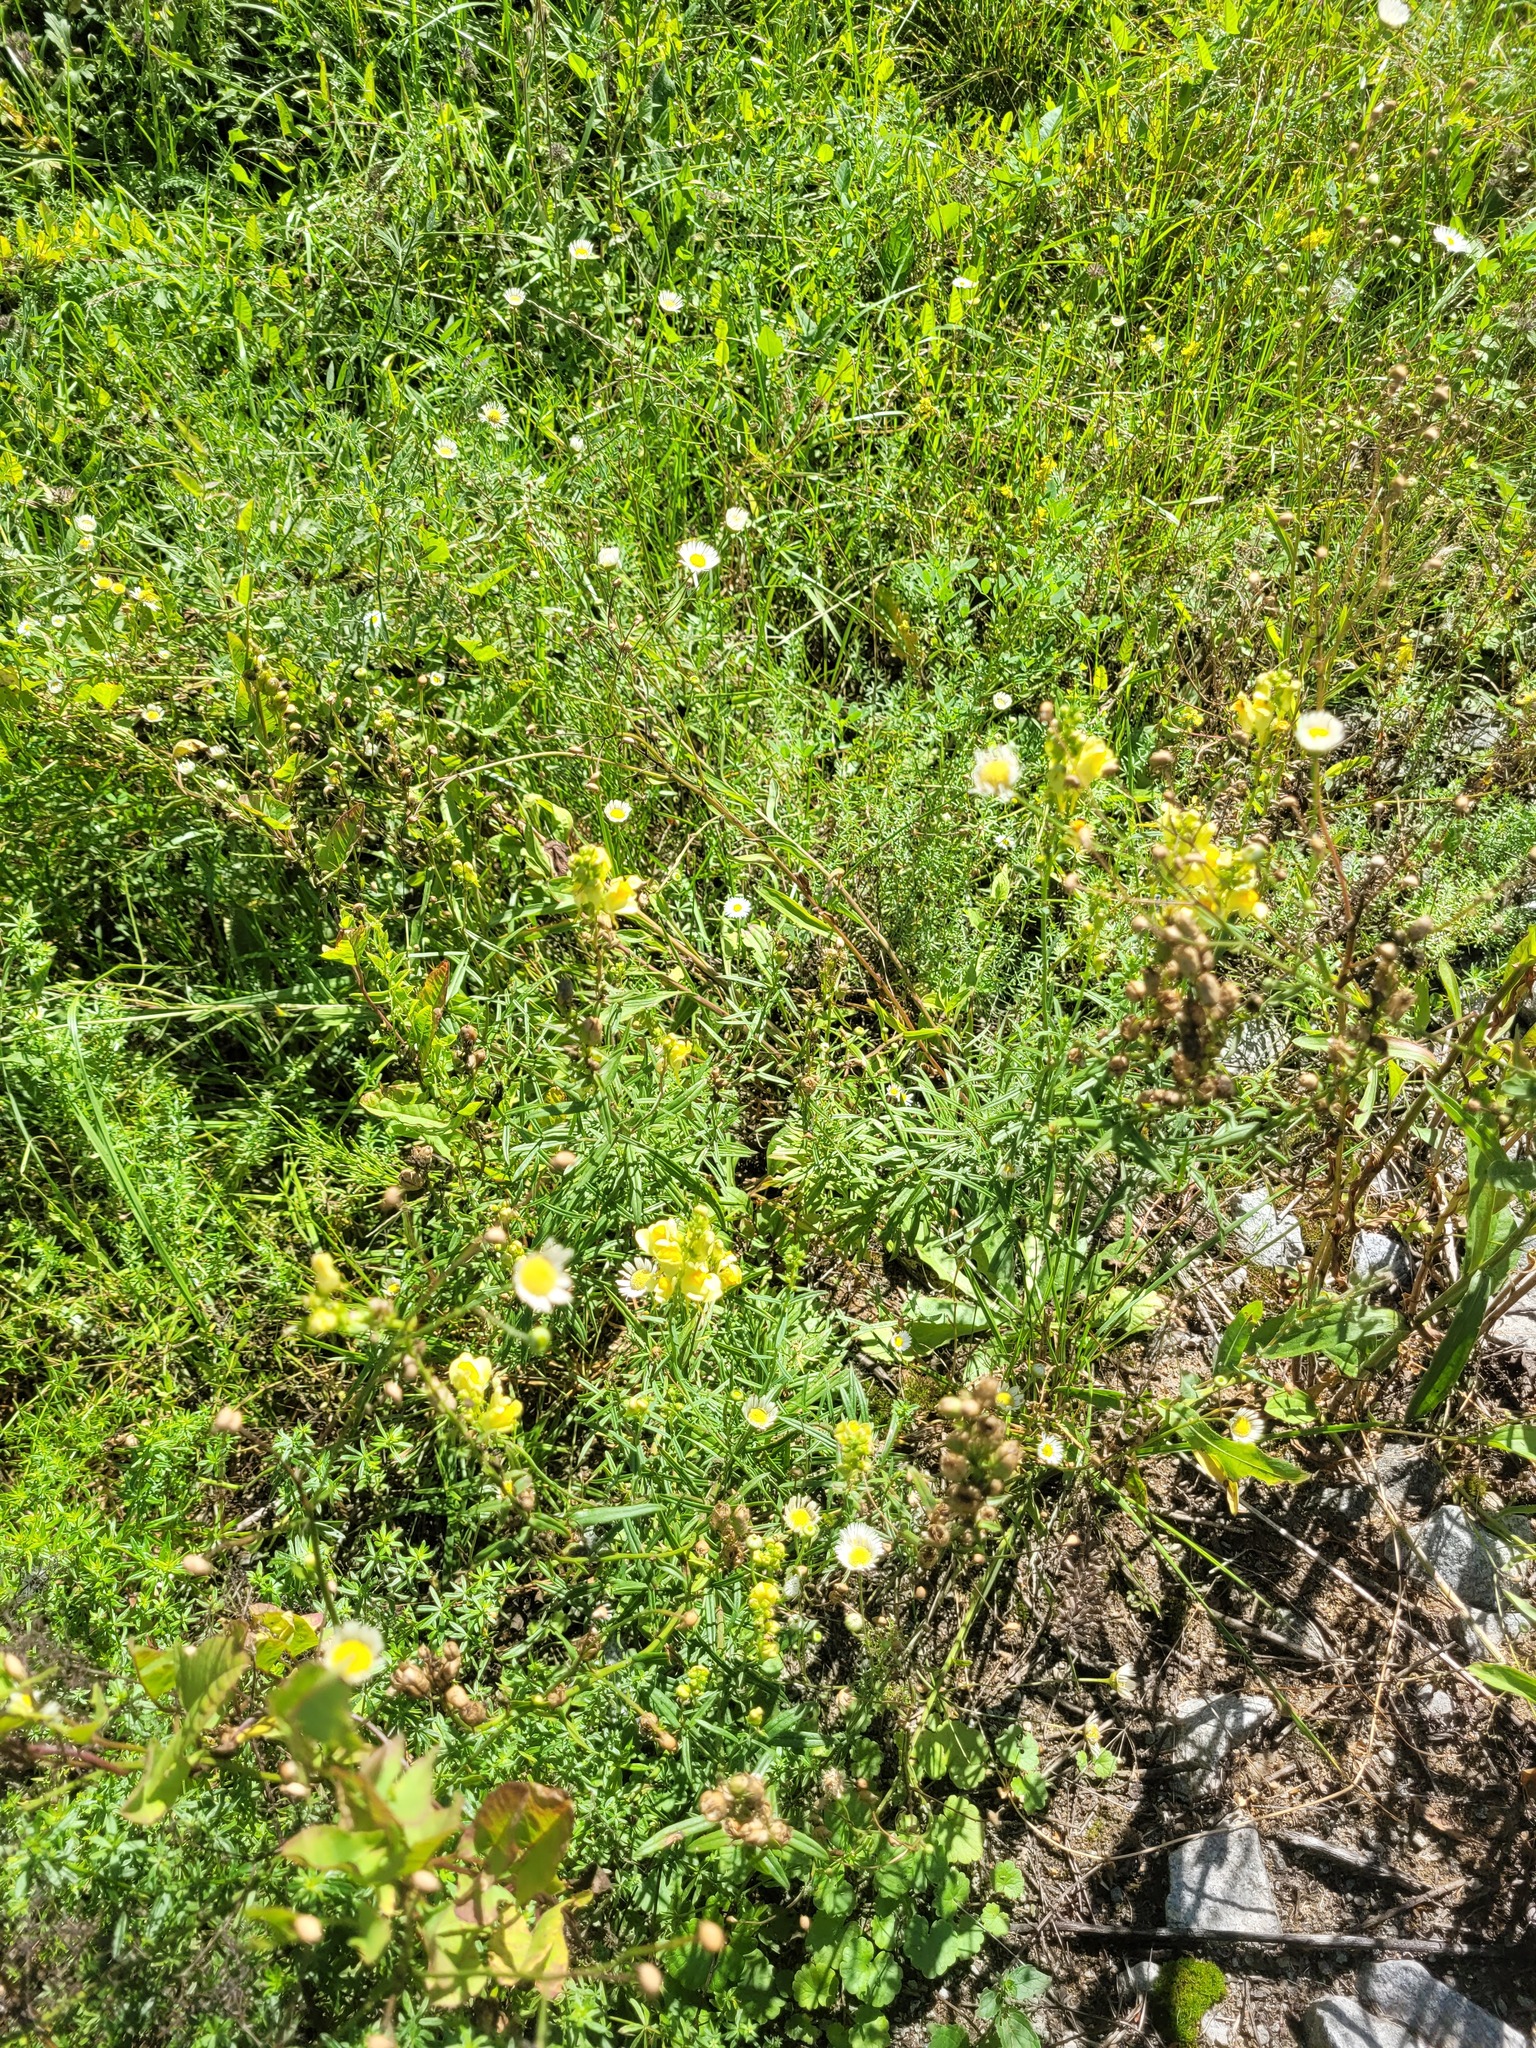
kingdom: Plantae
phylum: Tracheophyta
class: Magnoliopsida
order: Lamiales
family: Plantaginaceae
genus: Linaria
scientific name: Linaria vulgaris
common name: Butter and eggs
